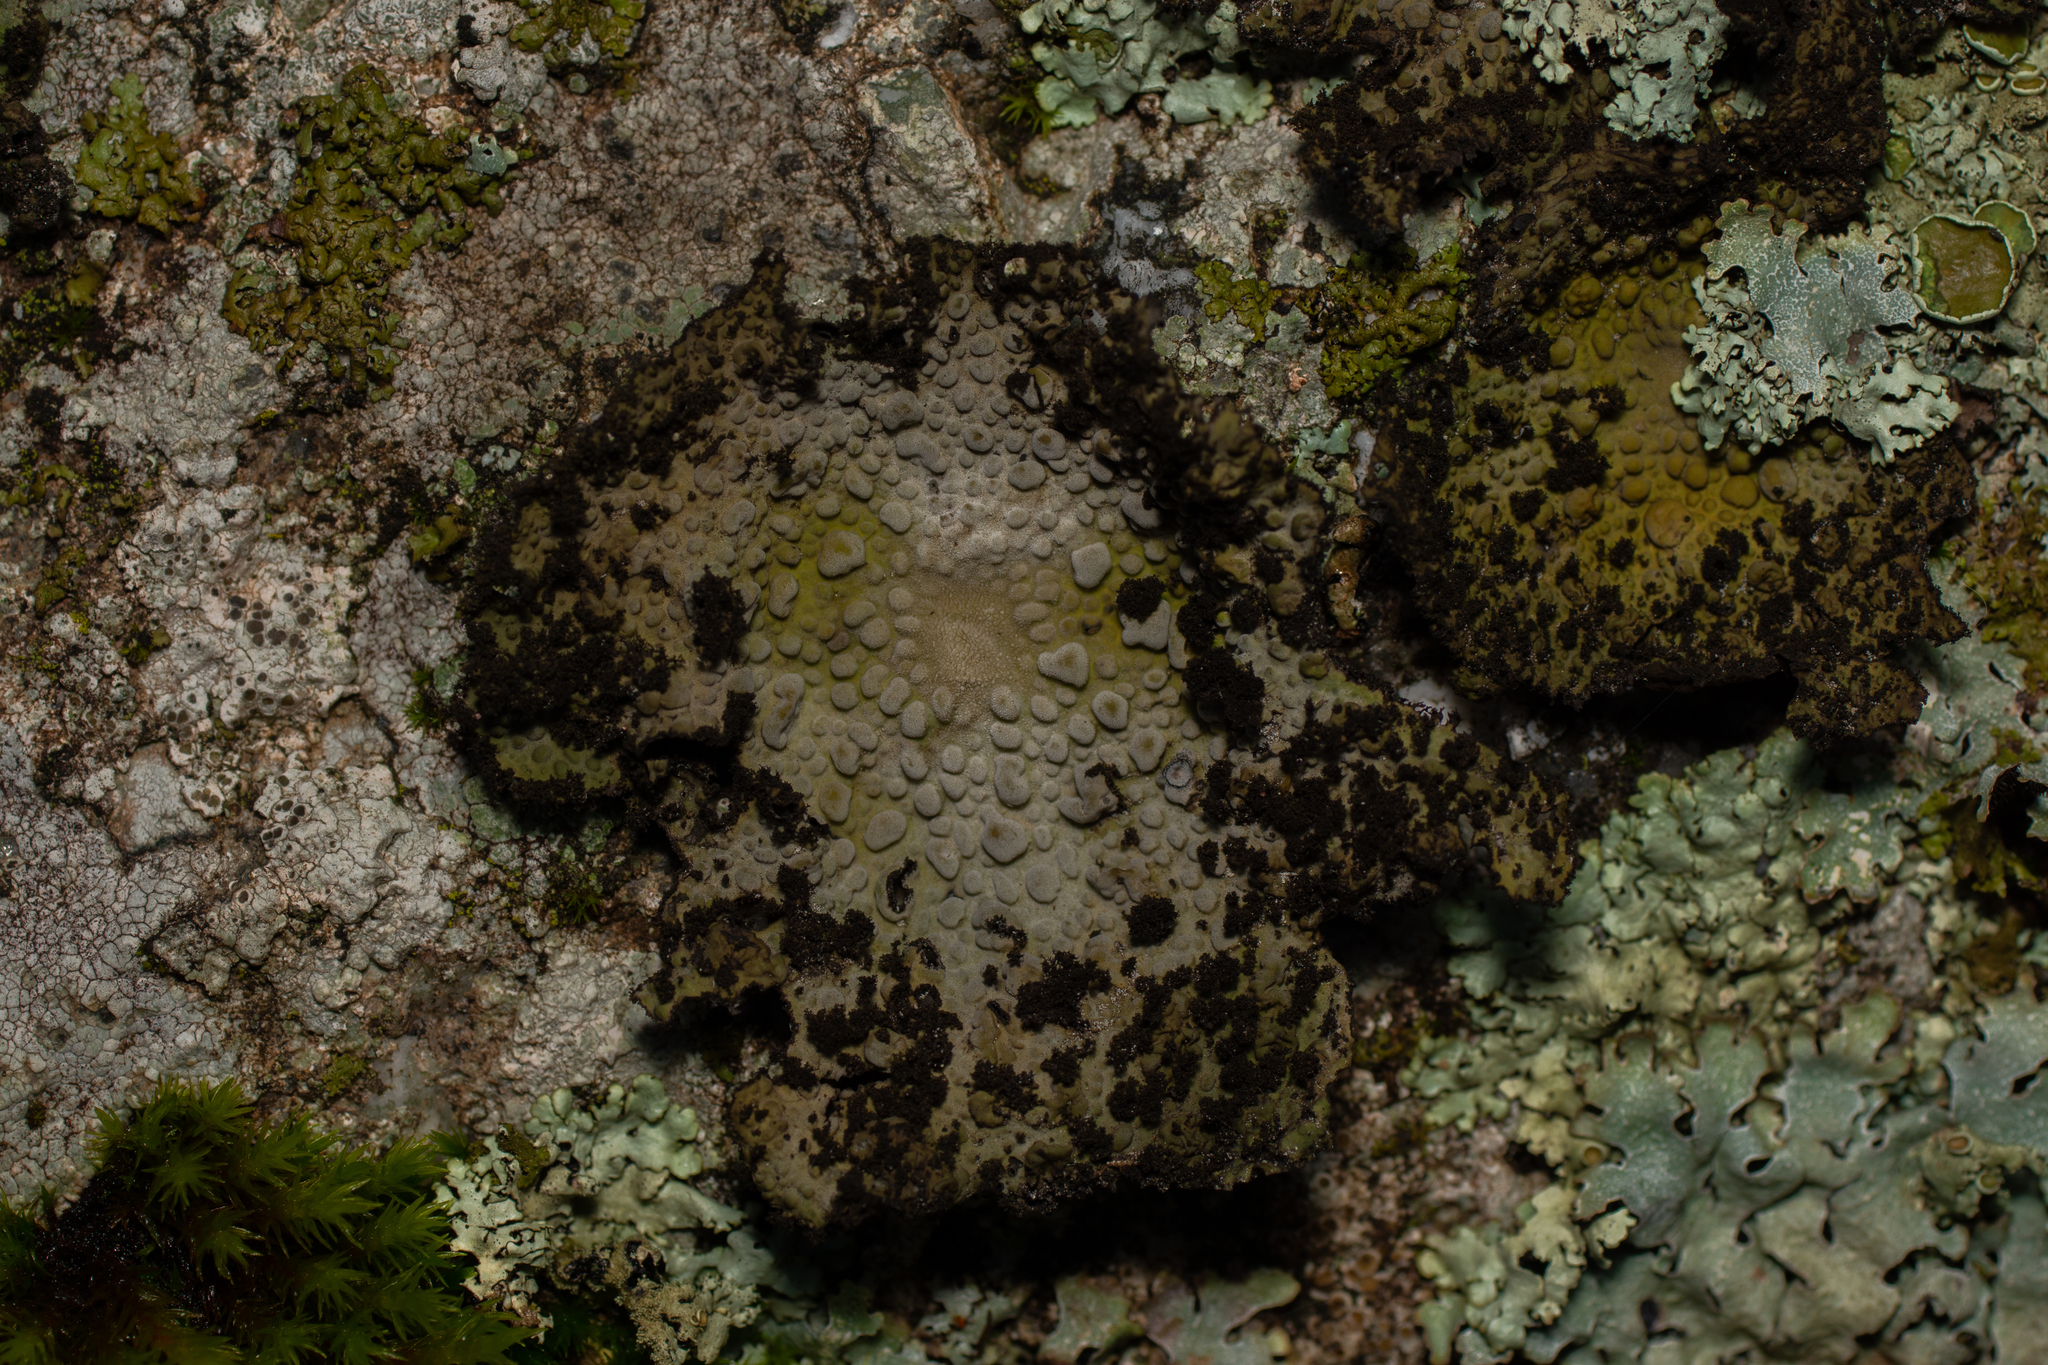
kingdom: Fungi
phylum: Ascomycota
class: Lecanoromycetes
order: Umbilicariales
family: Umbilicariaceae
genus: Lasallia
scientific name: Lasallia pustulata
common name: Blistered toadskin lichen
